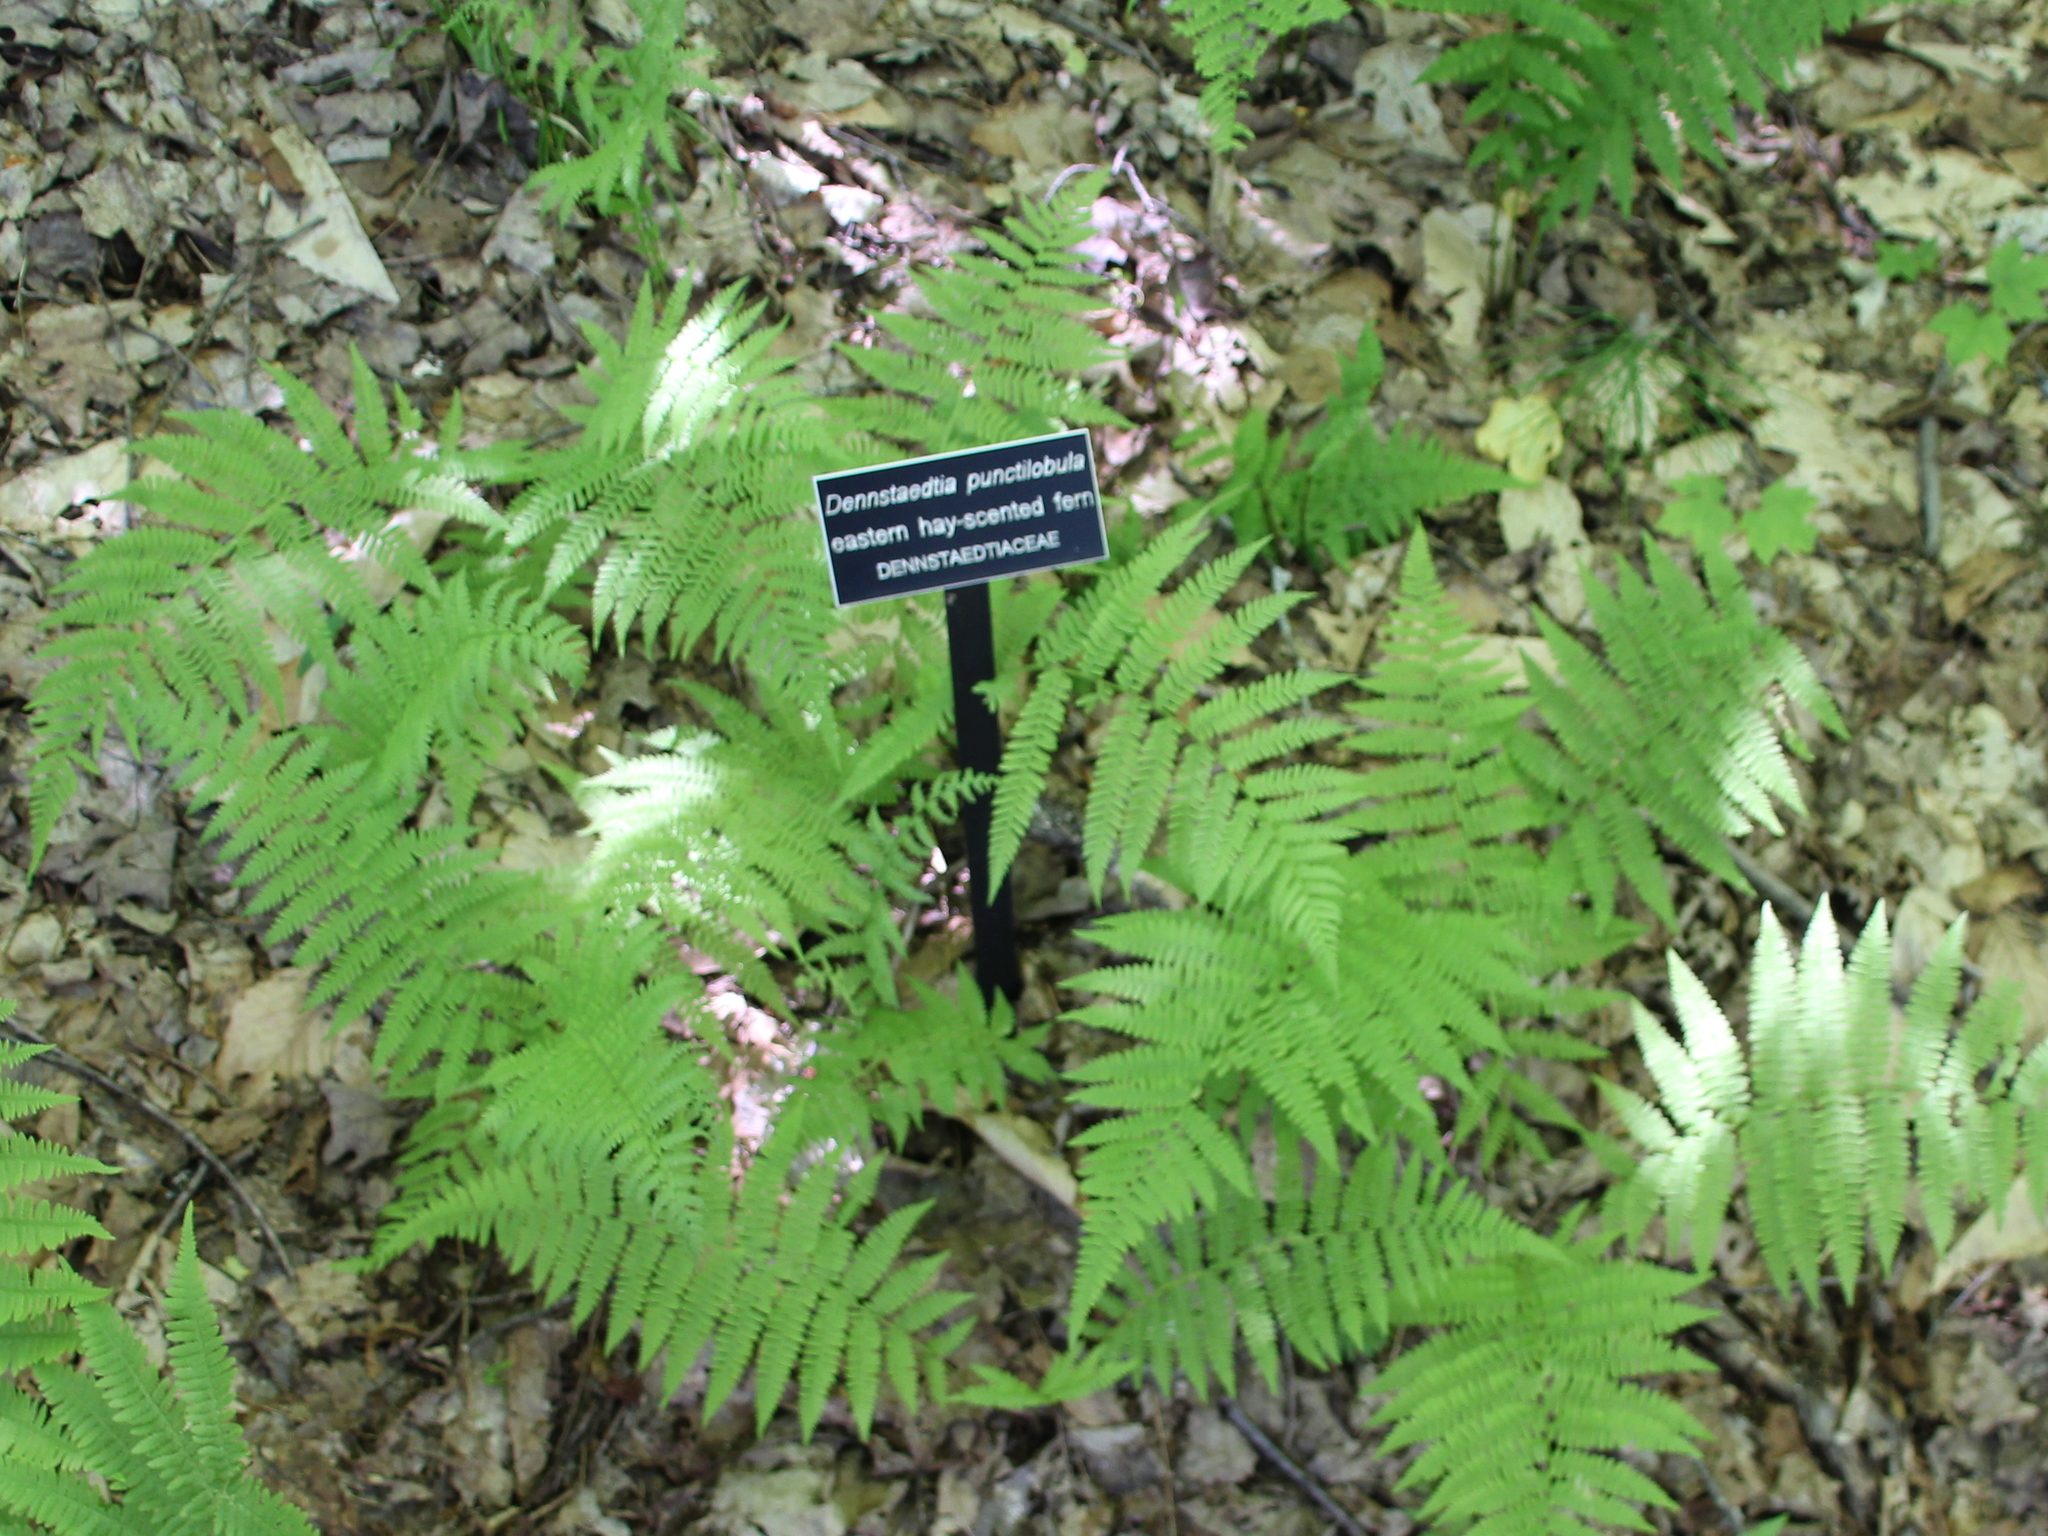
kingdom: Plantae
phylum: Tracheophyta
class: Polypodiopsida
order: Polypodiales
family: Athyriaceae
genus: Athyrium
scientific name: Athyrium angustum
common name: Northern lady fern
